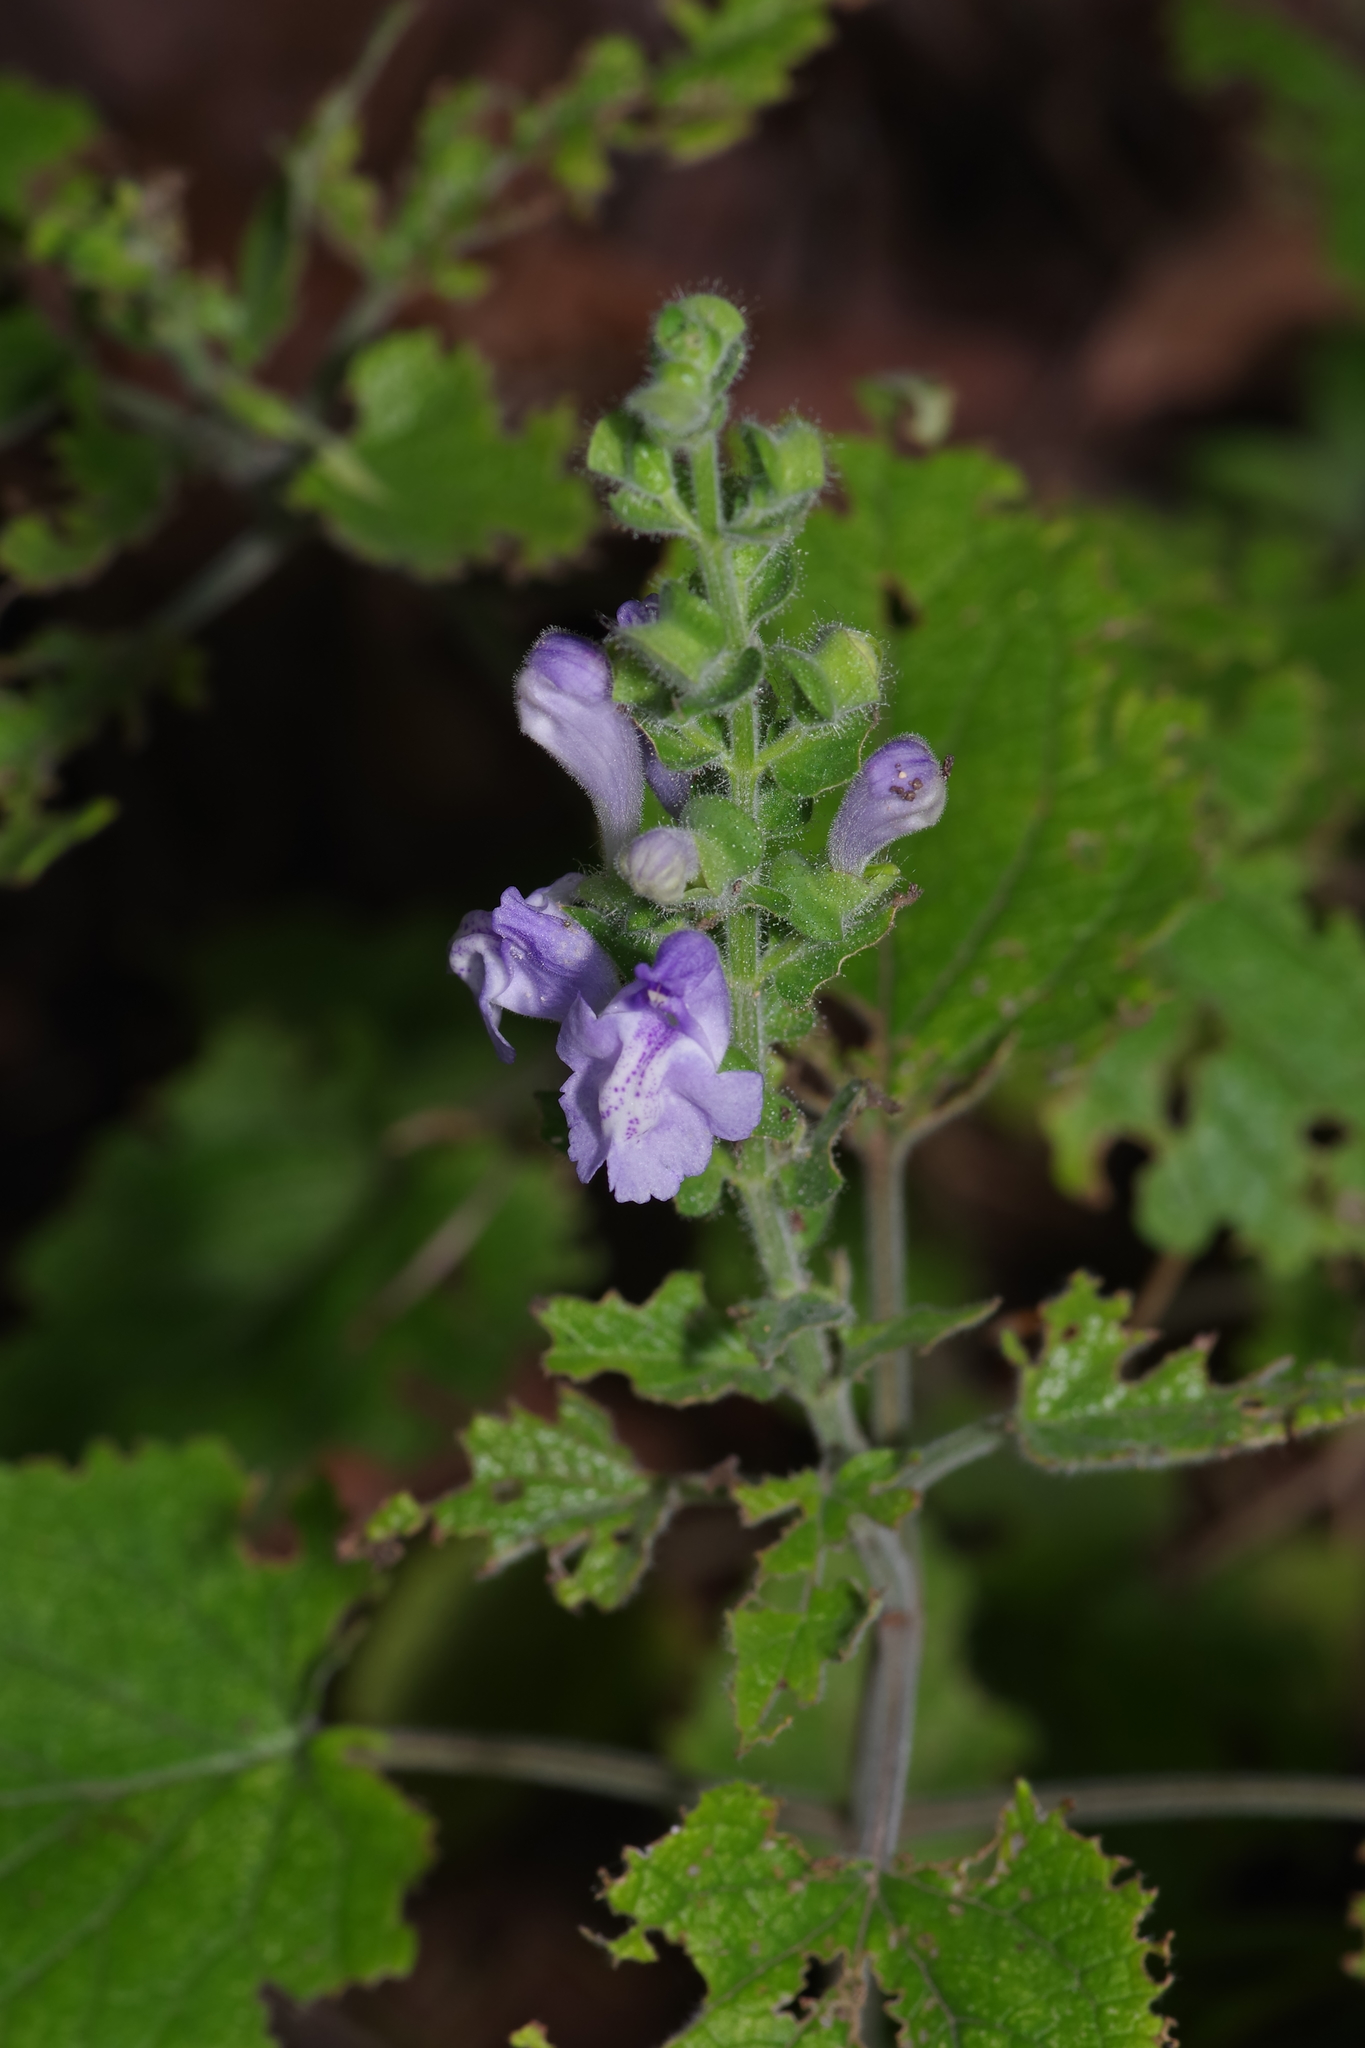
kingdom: Plantae
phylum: Tracheophyta
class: Magnoliopsida
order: Lamiales
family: Lamiaceae
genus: Scutellaria
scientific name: Scutellaria ovata
